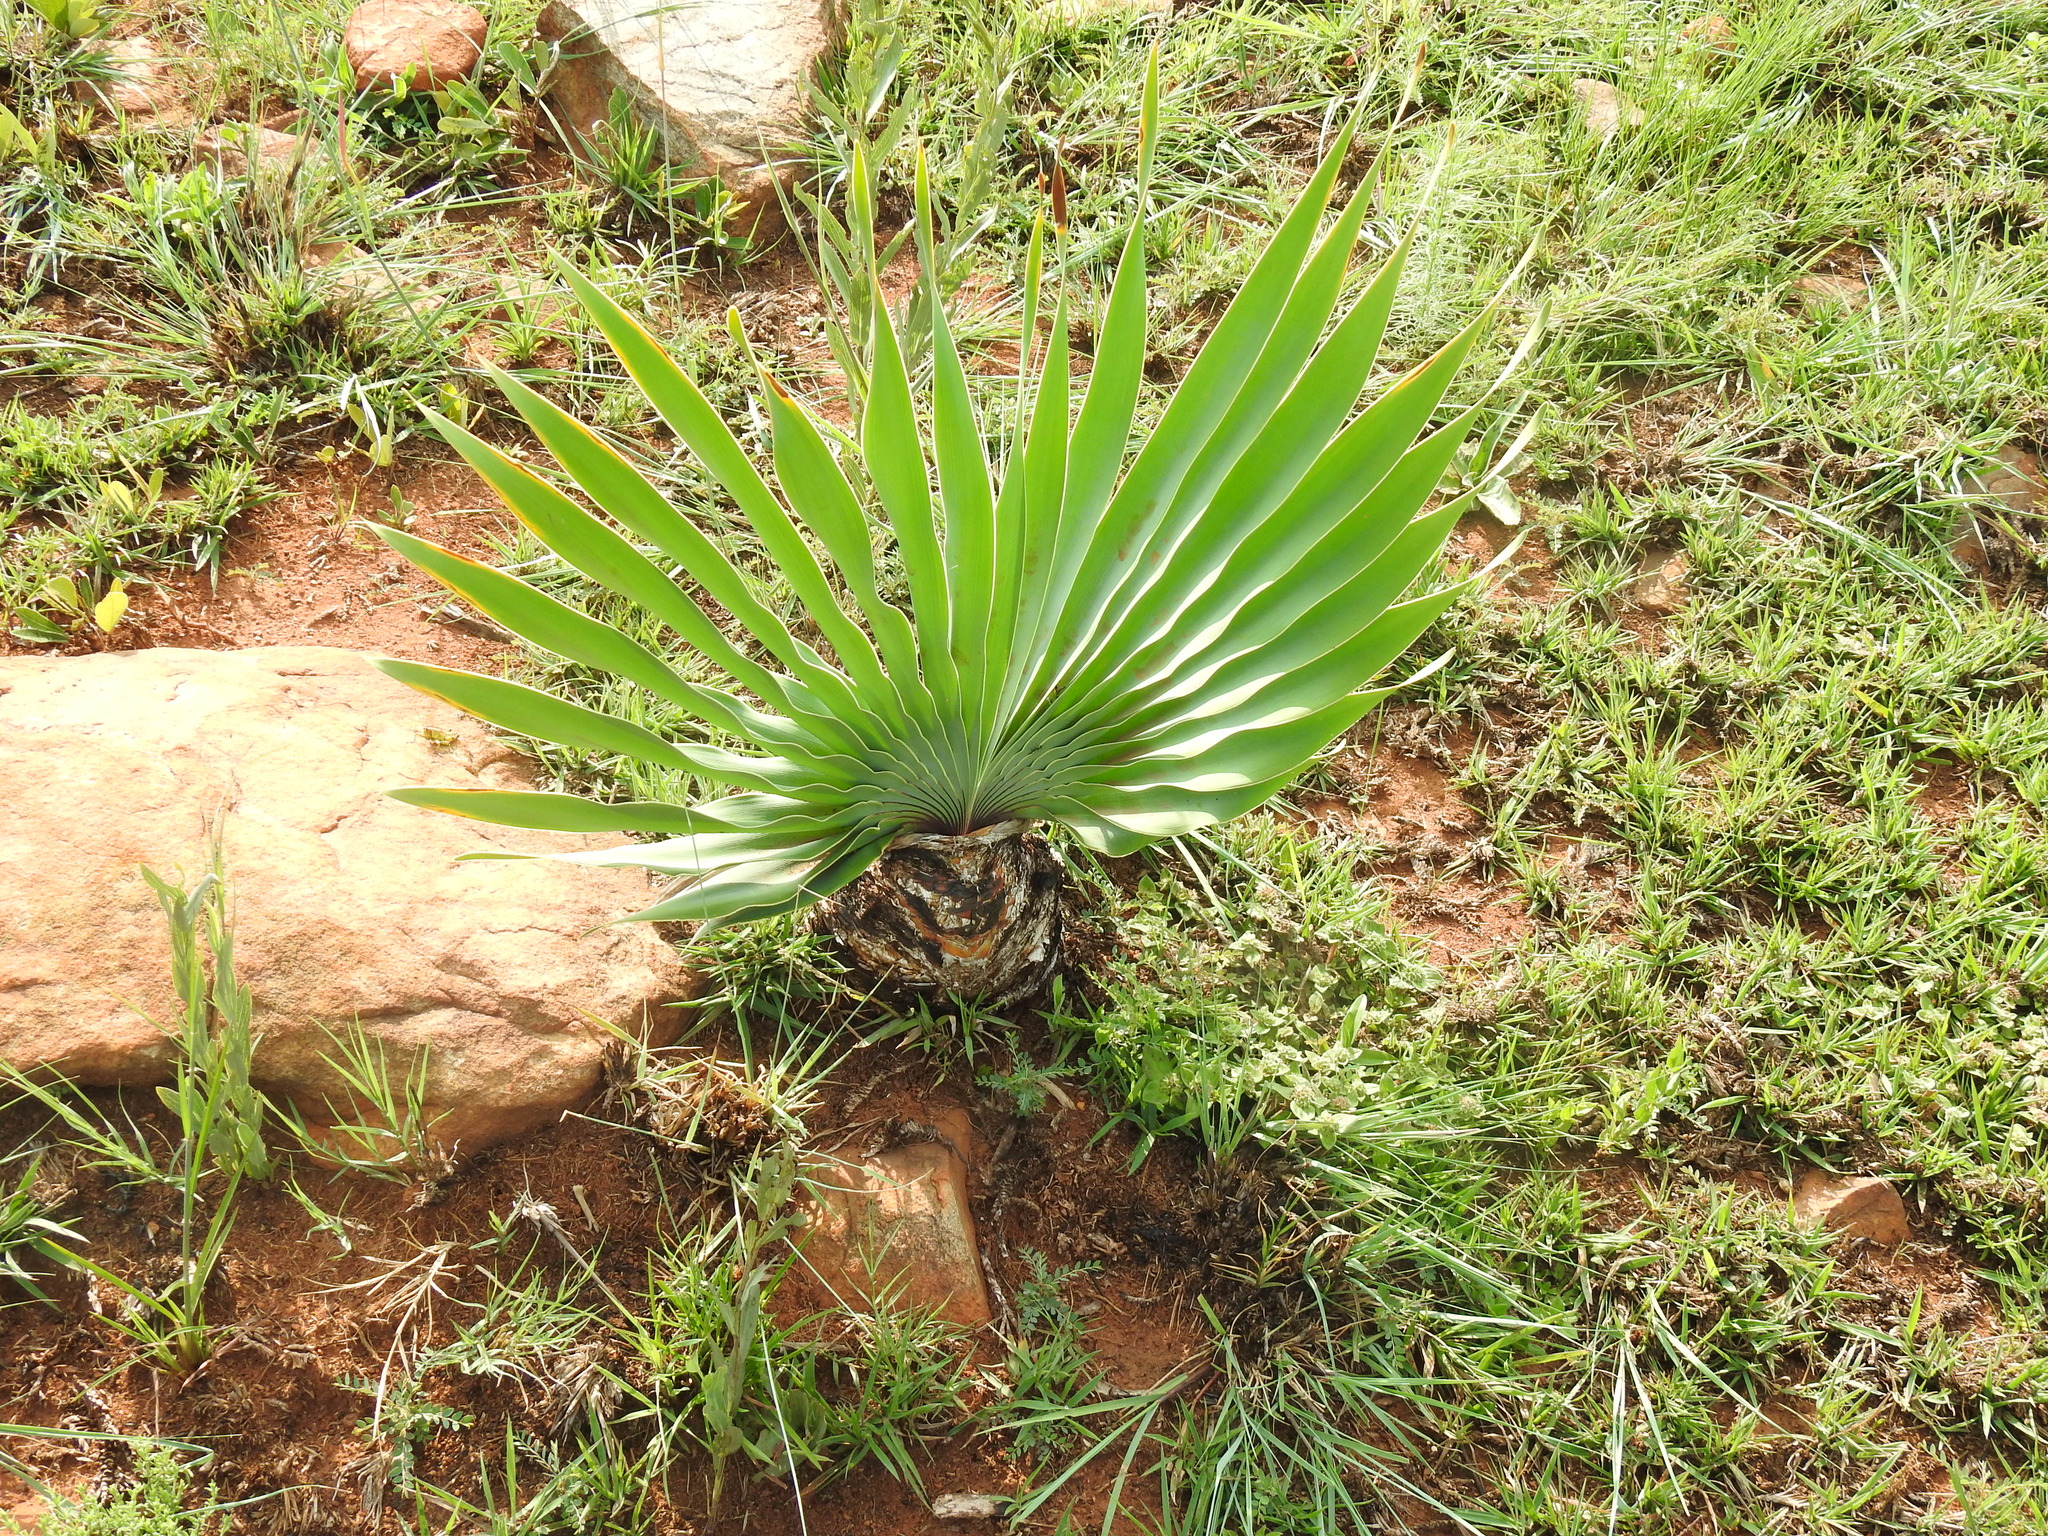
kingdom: Plantae
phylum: Tracheophyta
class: Liliopsida
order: Asparagales
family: Amaryllidaceae
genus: Boophone
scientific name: Boophone disticha
